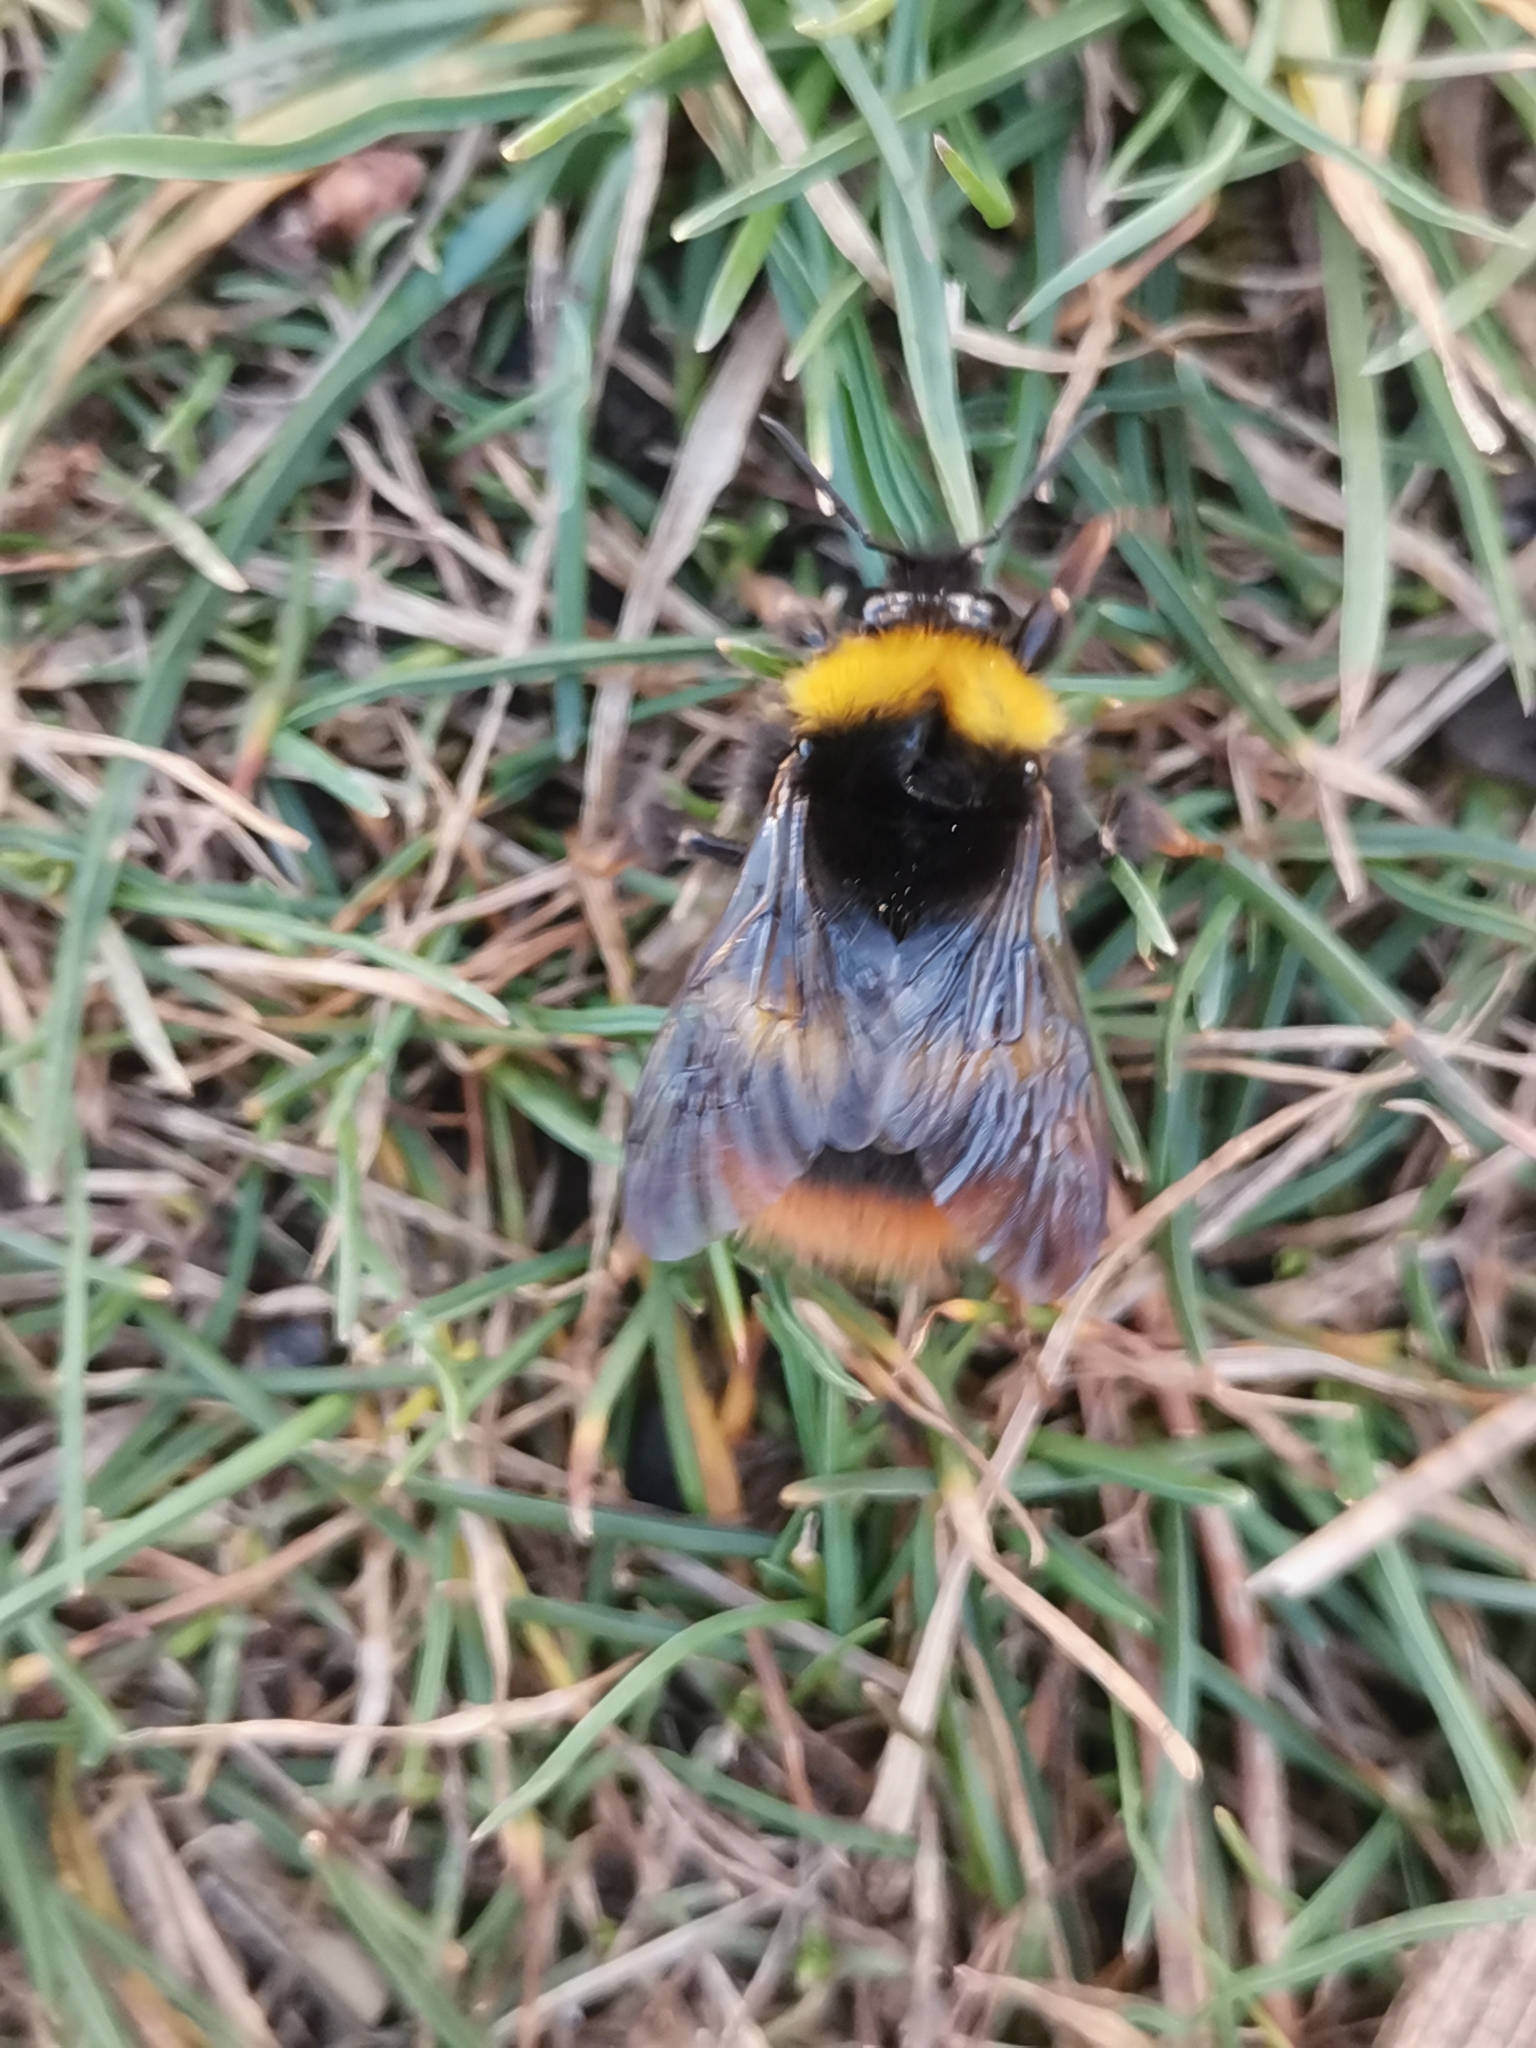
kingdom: Animalia
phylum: Arthropoda
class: Insecta
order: Hymenoptera
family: Apidae
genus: Bombus
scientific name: Bombus pratorum
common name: Early humble-bee
